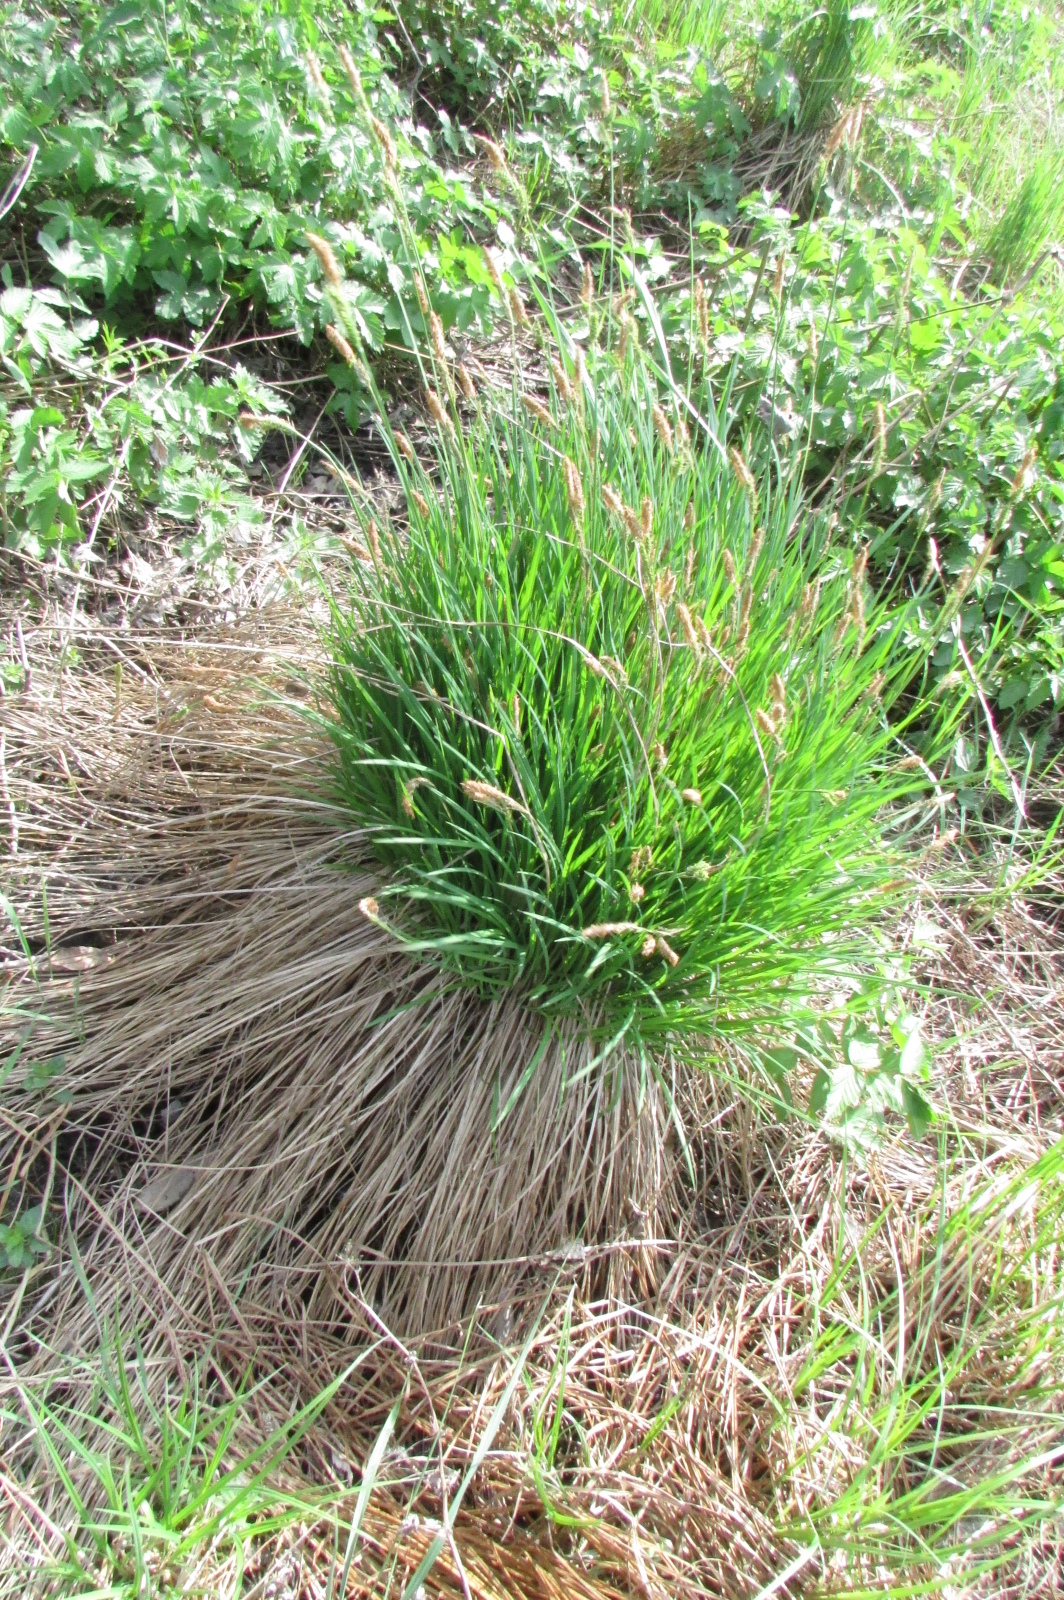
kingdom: Plantae
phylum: Tracheophyta
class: Liliopsida
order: Poales
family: Cyperaceae
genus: Carex
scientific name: Carex cespitosa
